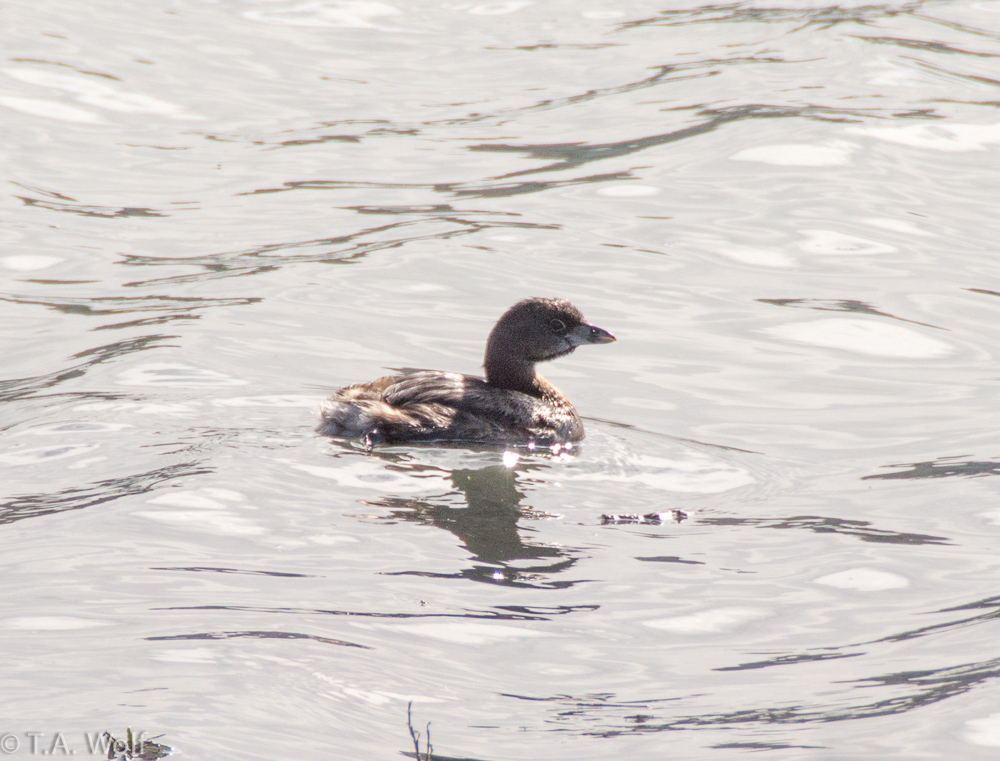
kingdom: Animalia
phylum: Chordata
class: Aves
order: Podicipediformes
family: Podicipedidae
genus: Podilymbus
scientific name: Podilymbus podiceps
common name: Pied-billed grebe
